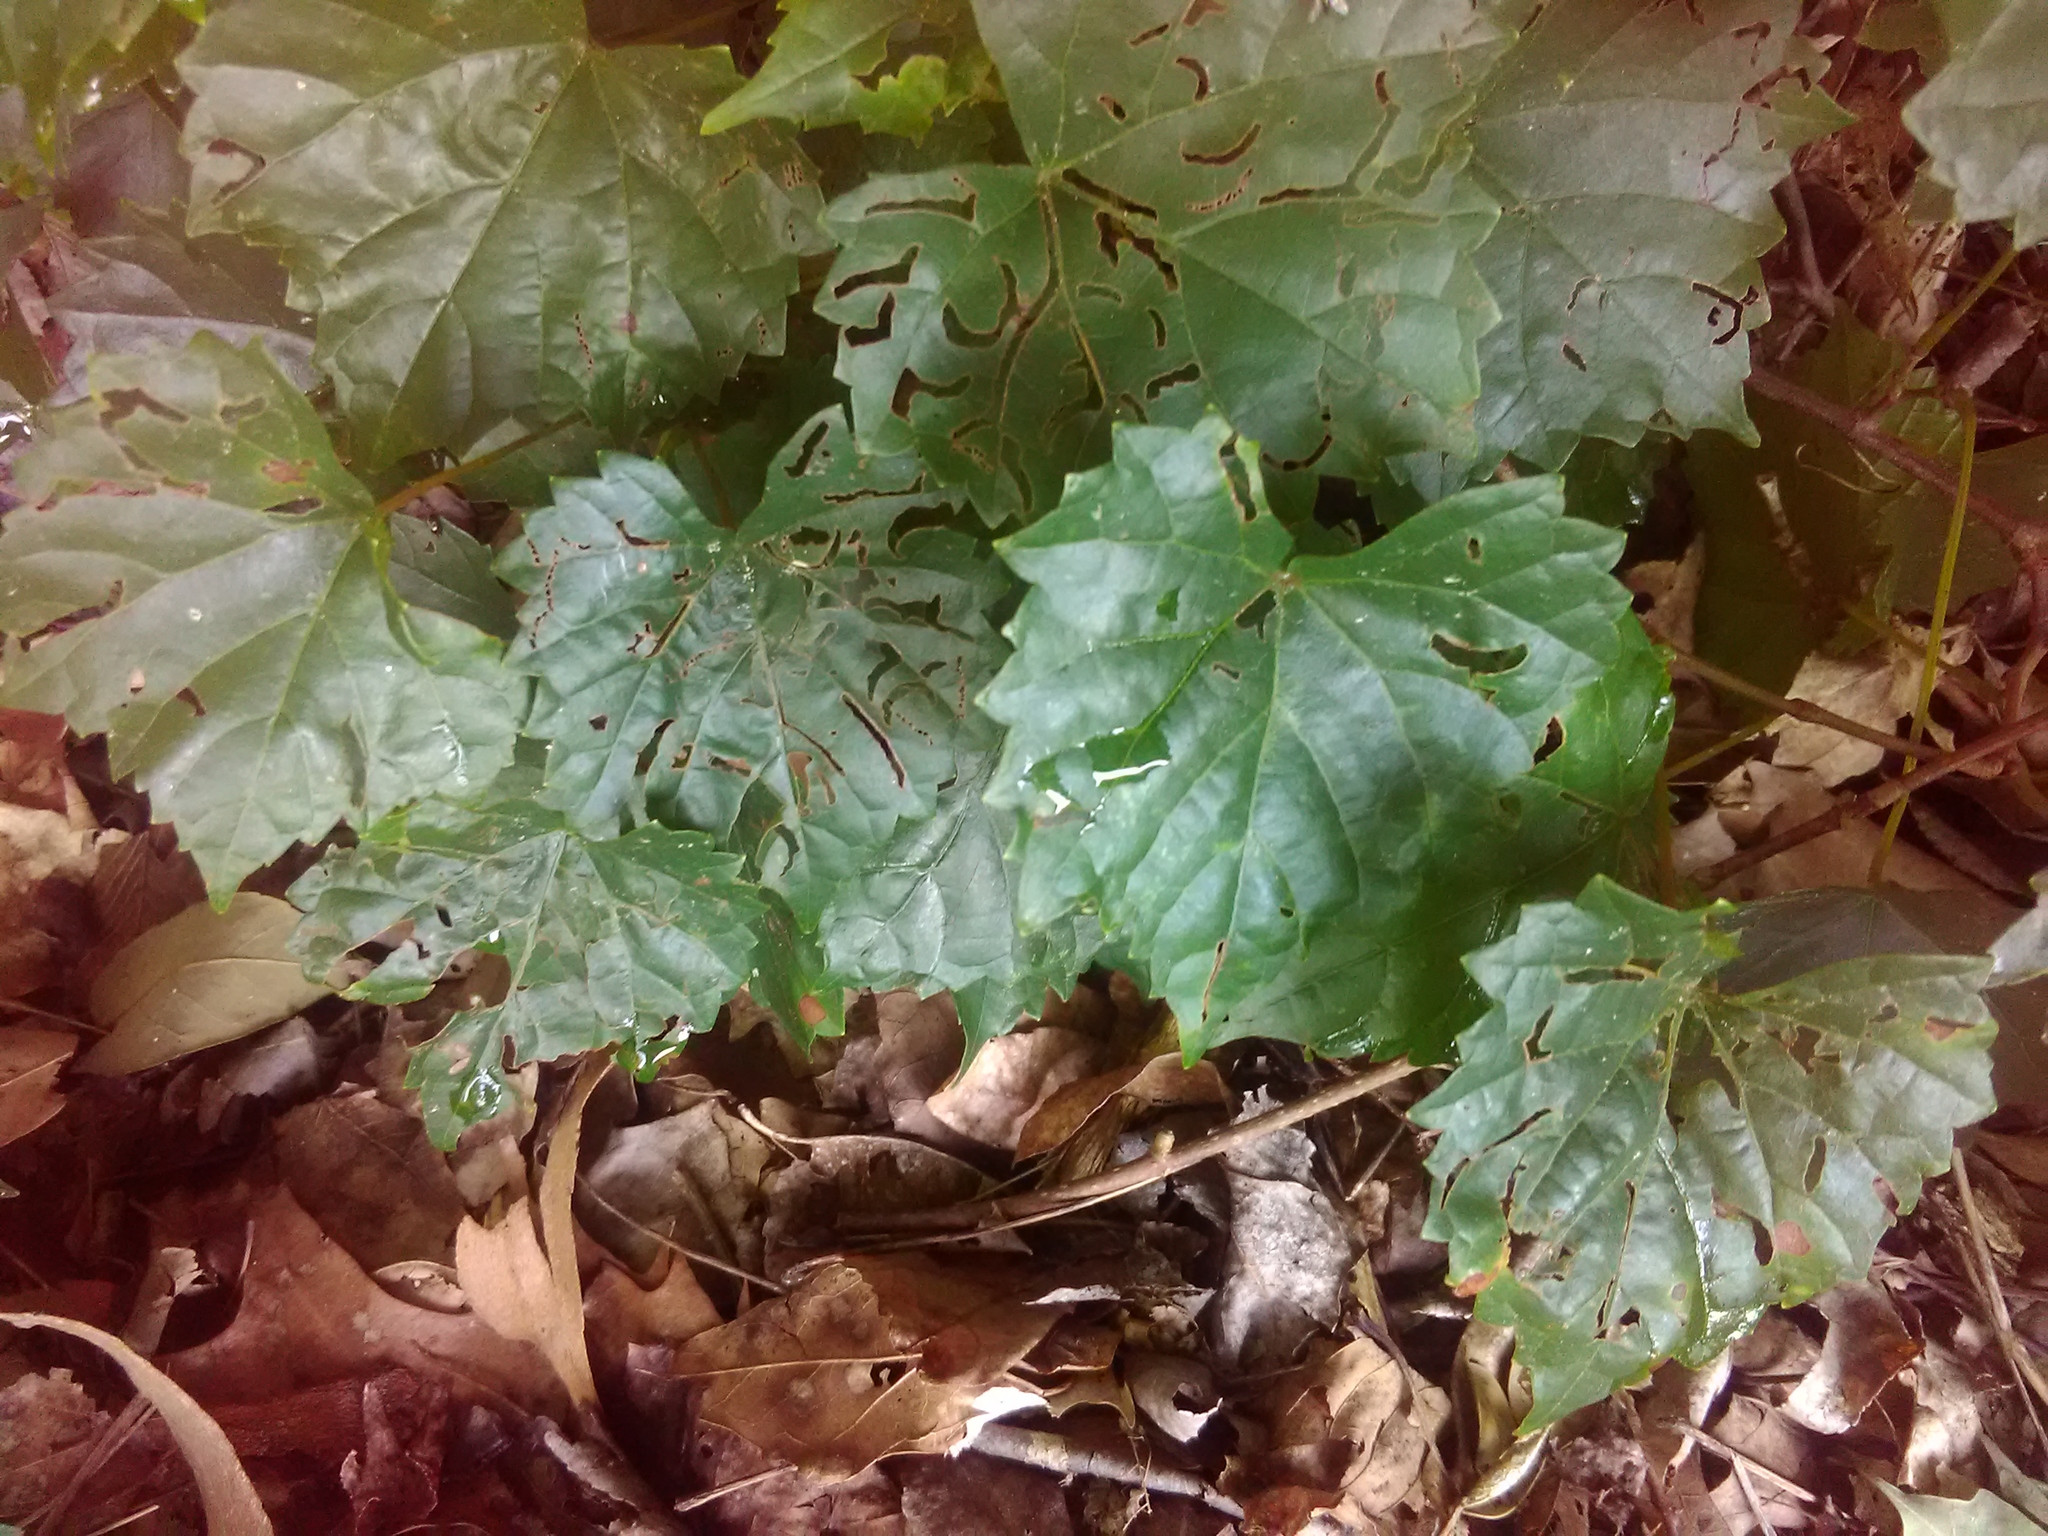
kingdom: Plantae
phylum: Tracheophyta
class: Magnoliopsida
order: Vitales
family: Vitaceae
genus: Vitis
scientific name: Vitis rotundifolia
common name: Muscadine grape
